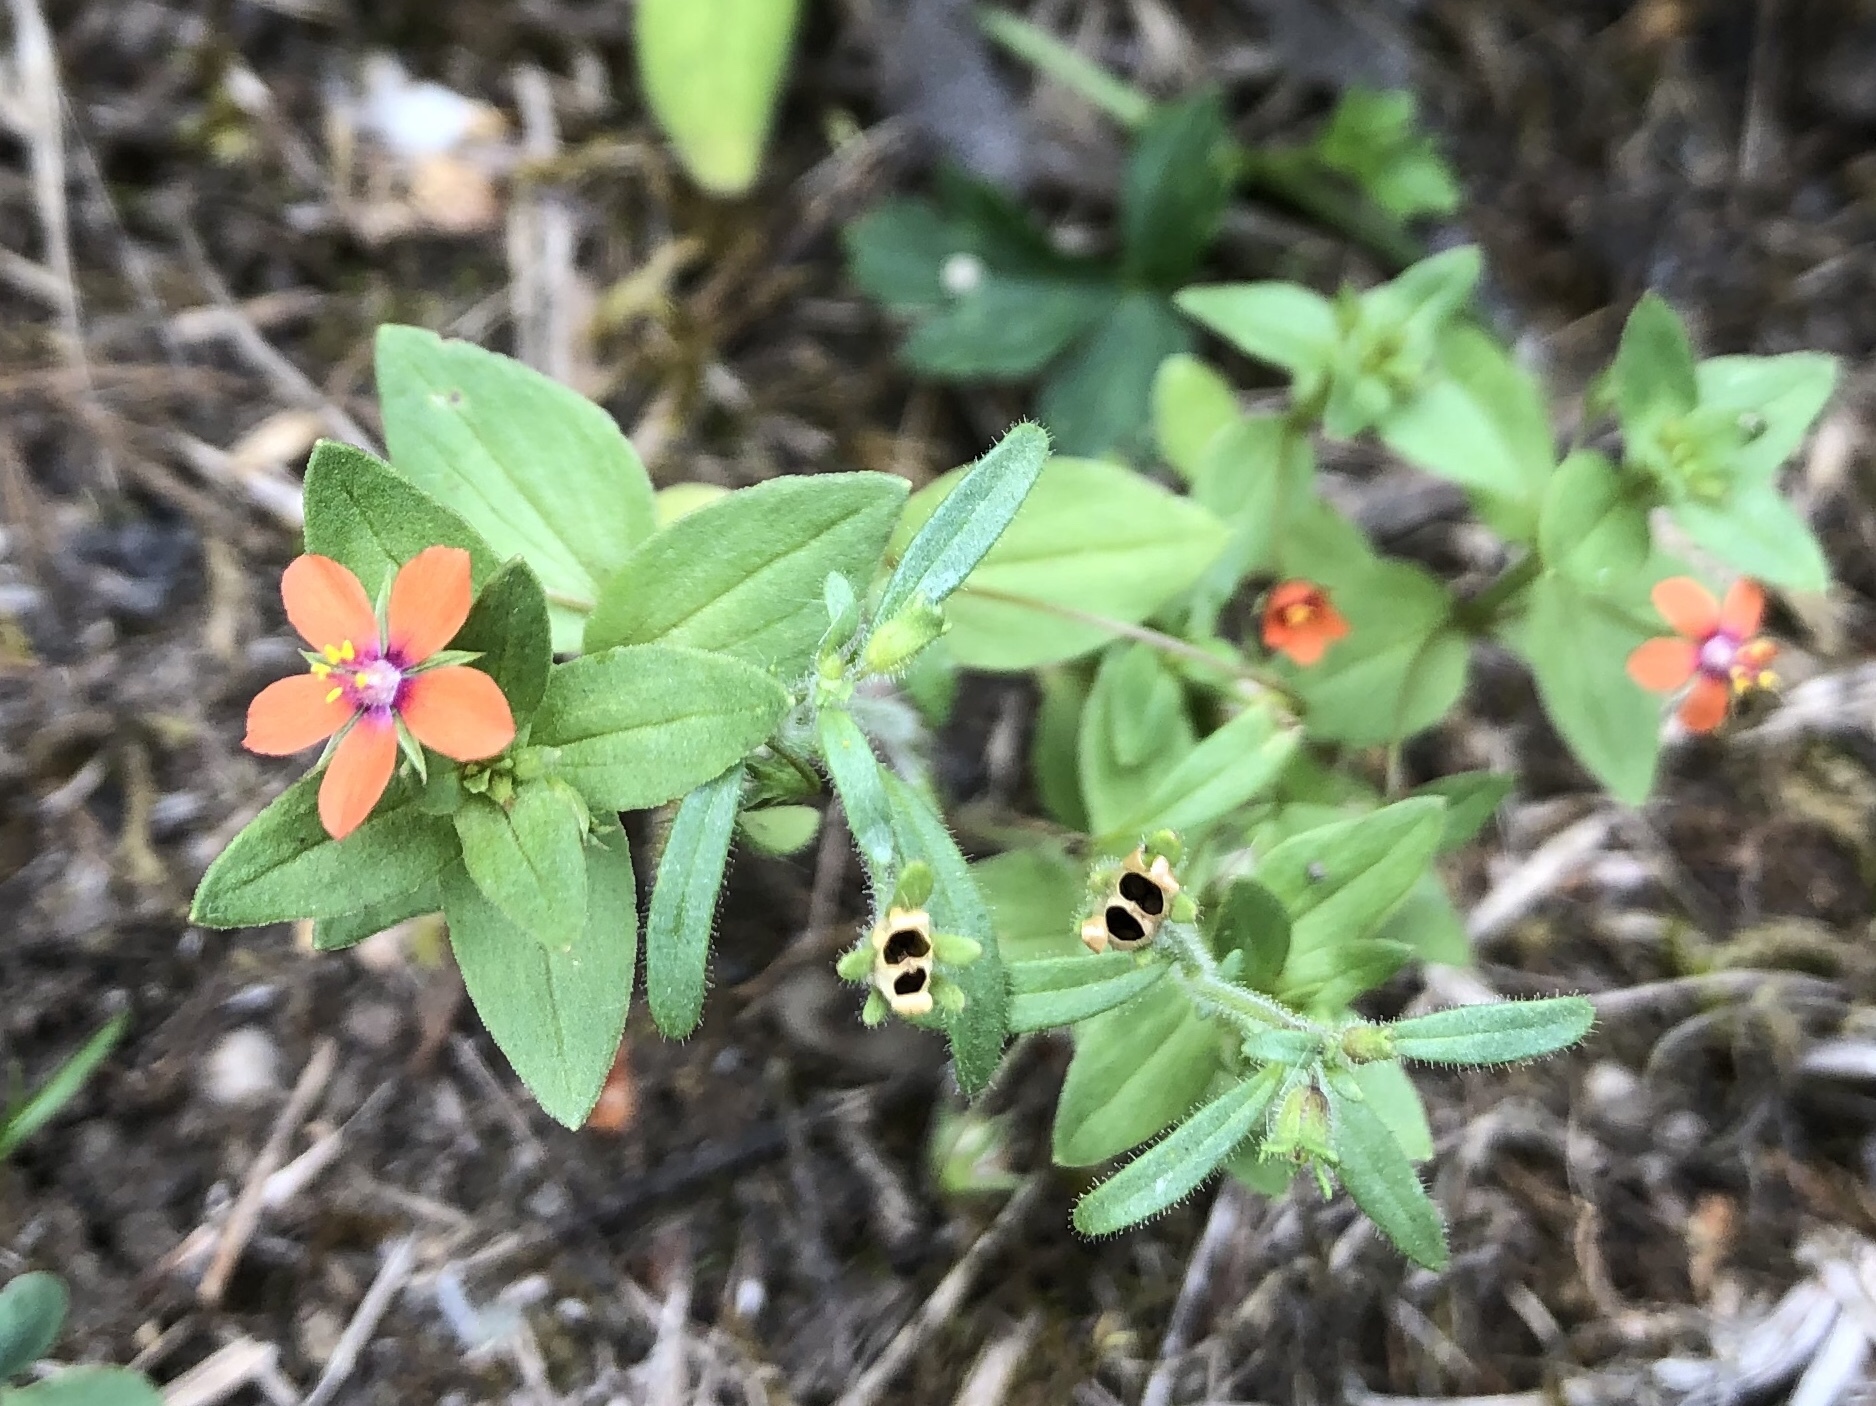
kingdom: Plantae
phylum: Tracheophyta
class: Magnoliopsida
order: Ericales
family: Primulaceae
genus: Lysimachia
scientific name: Lysimachia arvensis
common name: Scarlet pimpernel
